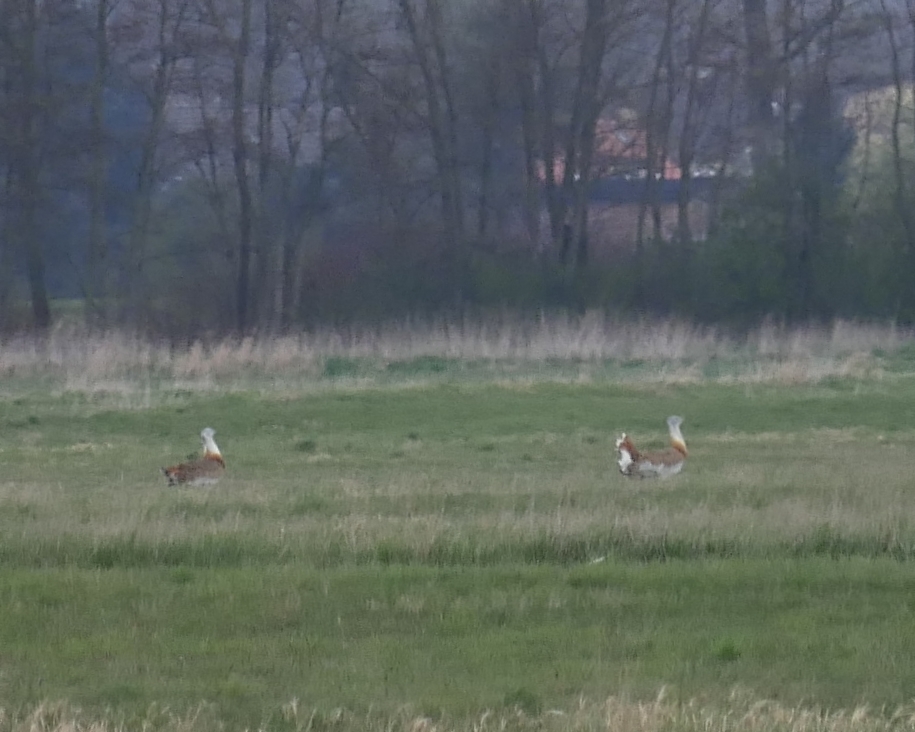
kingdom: Animalia
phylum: Chordata
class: Aves
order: Otidiformes
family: Otididae
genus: Otis
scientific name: Otis tarda
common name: Great bustard
